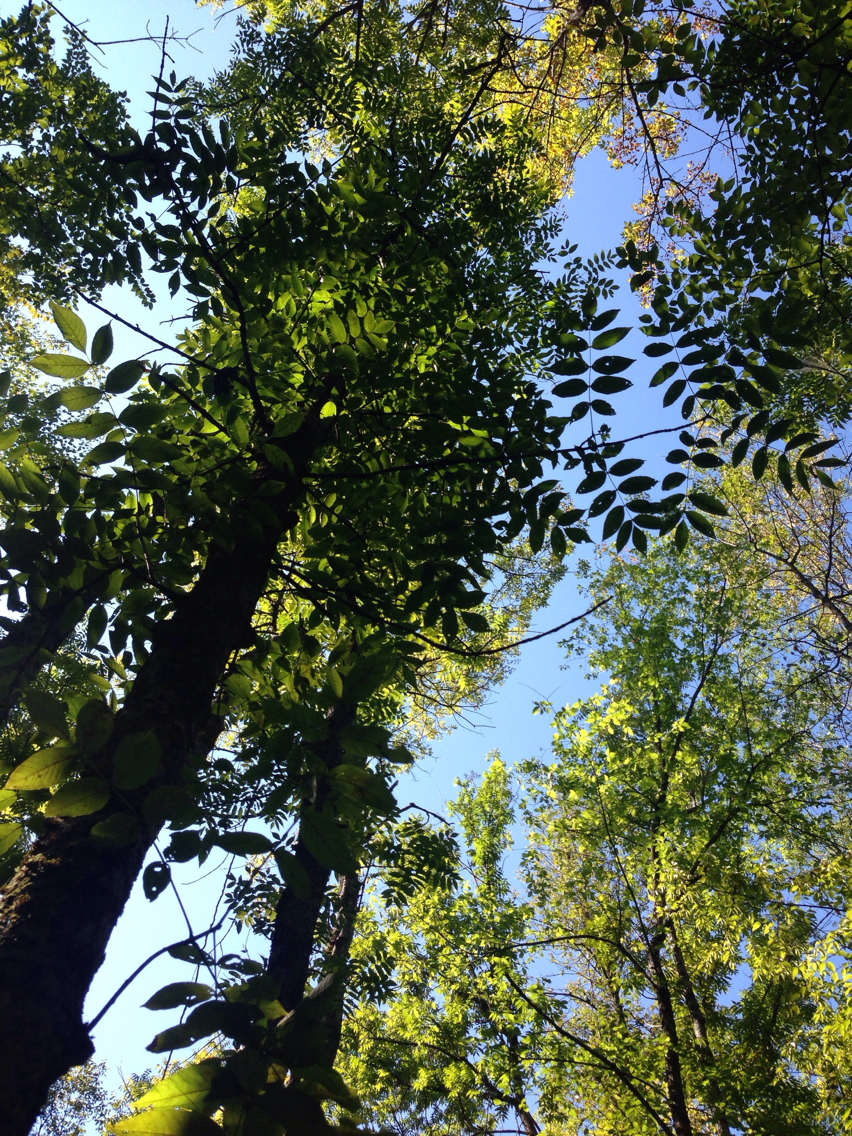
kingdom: Plantae
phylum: Tracheophyta
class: Magnoliopsida
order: Lamiales
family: Oleaceae
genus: Fraxinus
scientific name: Fraxinus nigra
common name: Black ash
